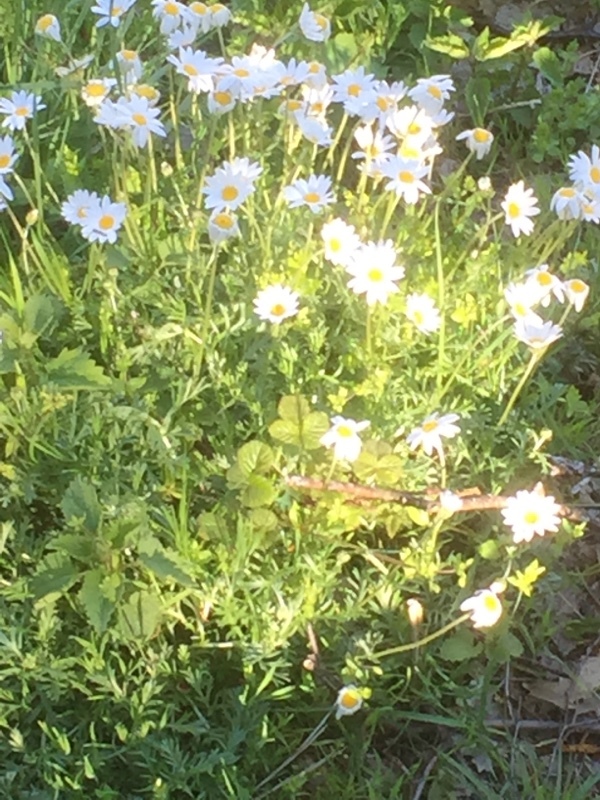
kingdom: Plantae
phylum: Tracheophyta
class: Magnoliopsida
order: Asterales
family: Asteraceae
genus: Phalacrocarpum
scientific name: Phalacrocarpum oppositifolium
